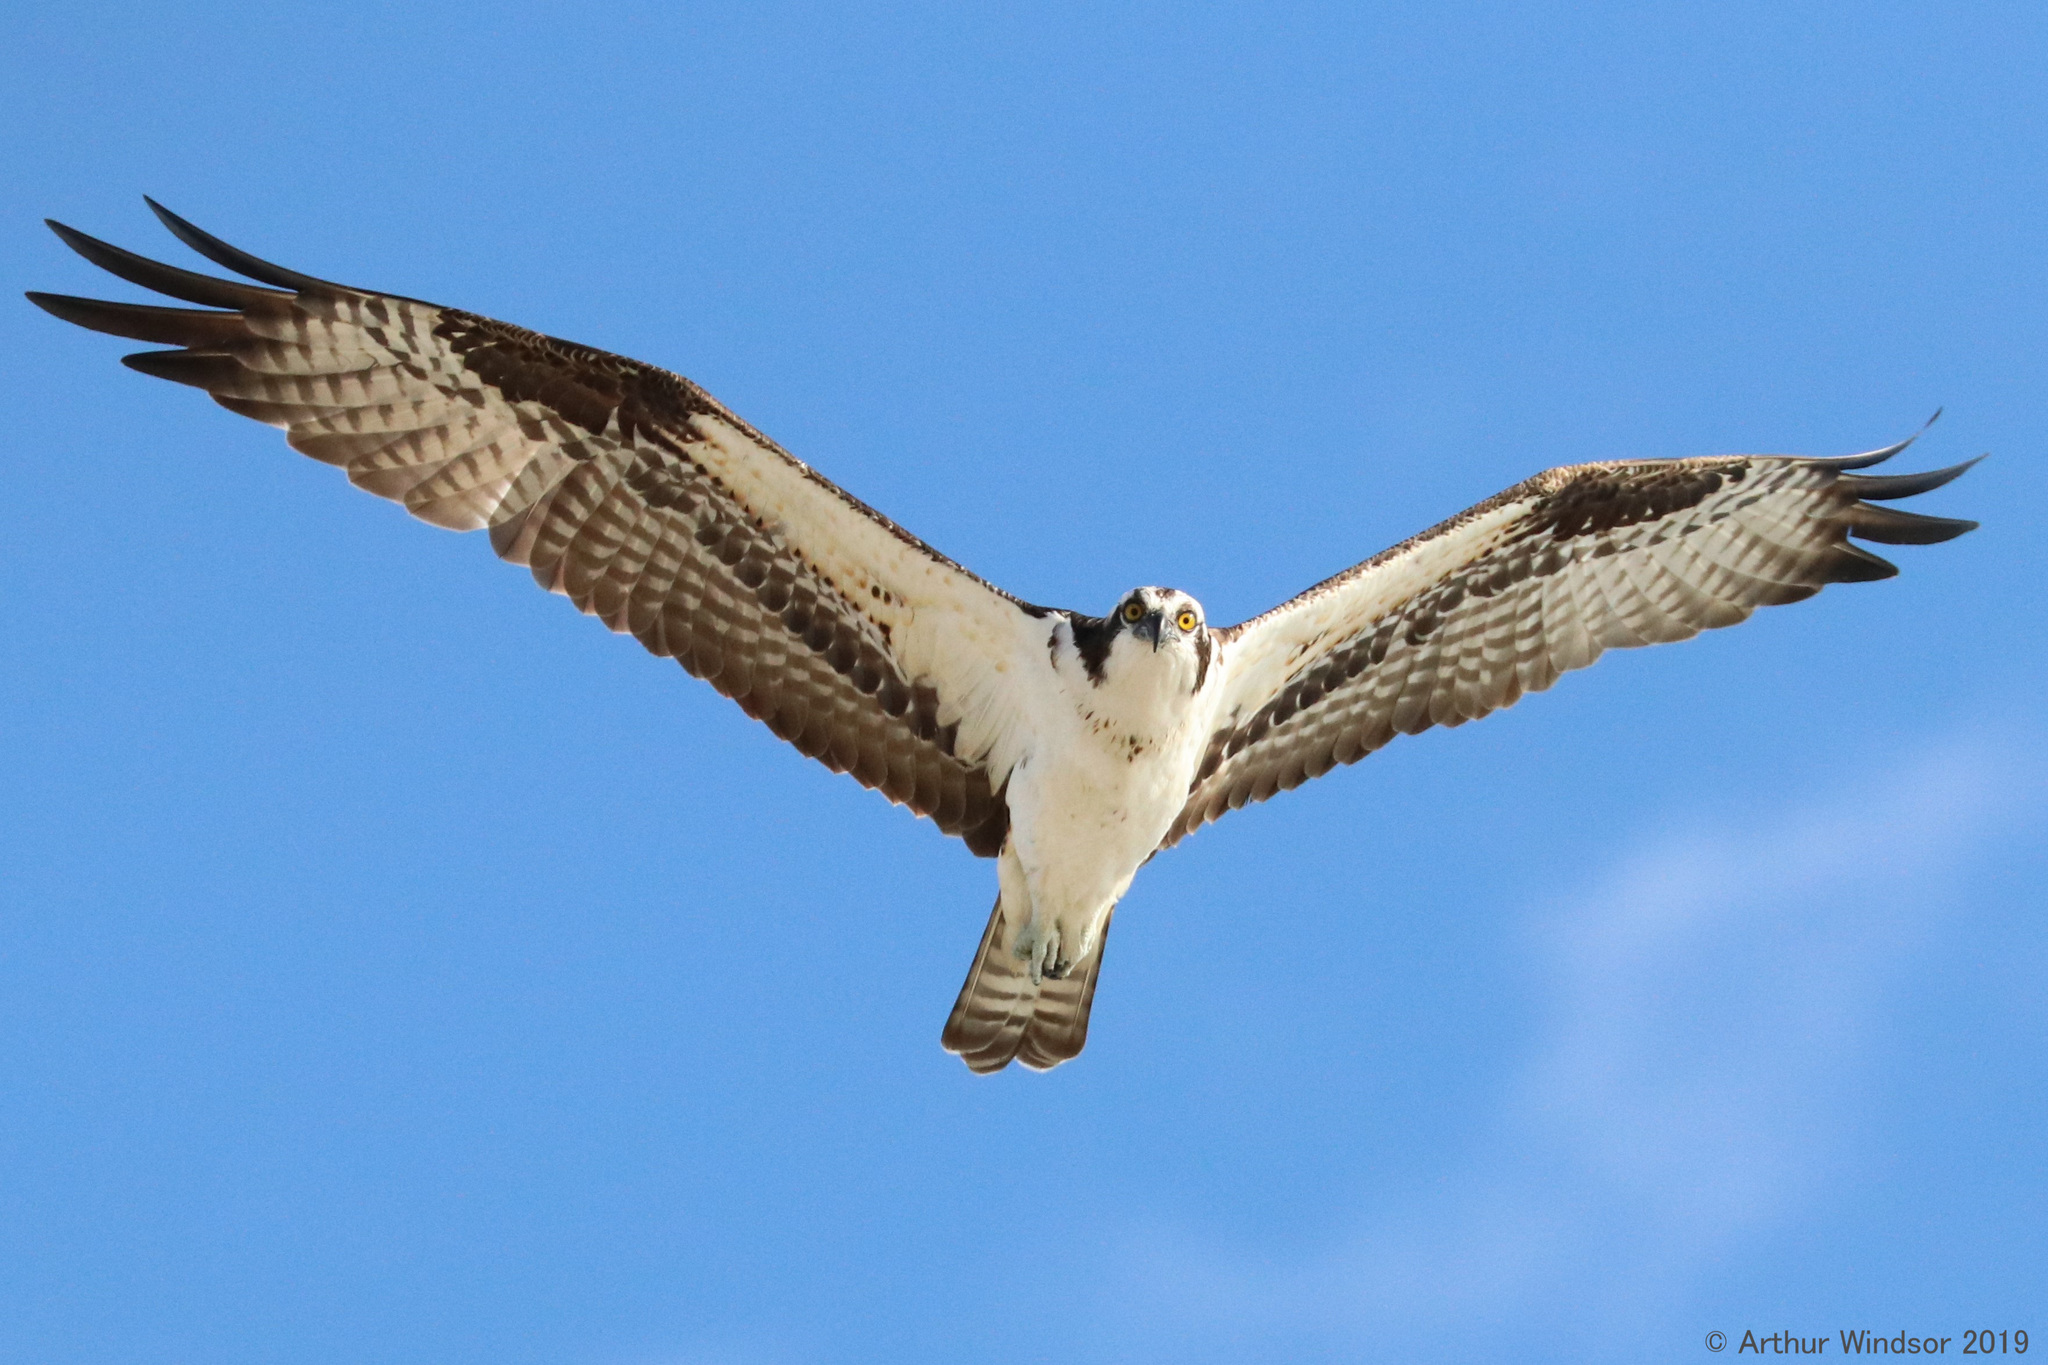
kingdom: Animalia
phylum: Chordata
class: Aves
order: Accipitriformes
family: Pandionidae
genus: Pandion
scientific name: Pandion haliaetus
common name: Osprey
